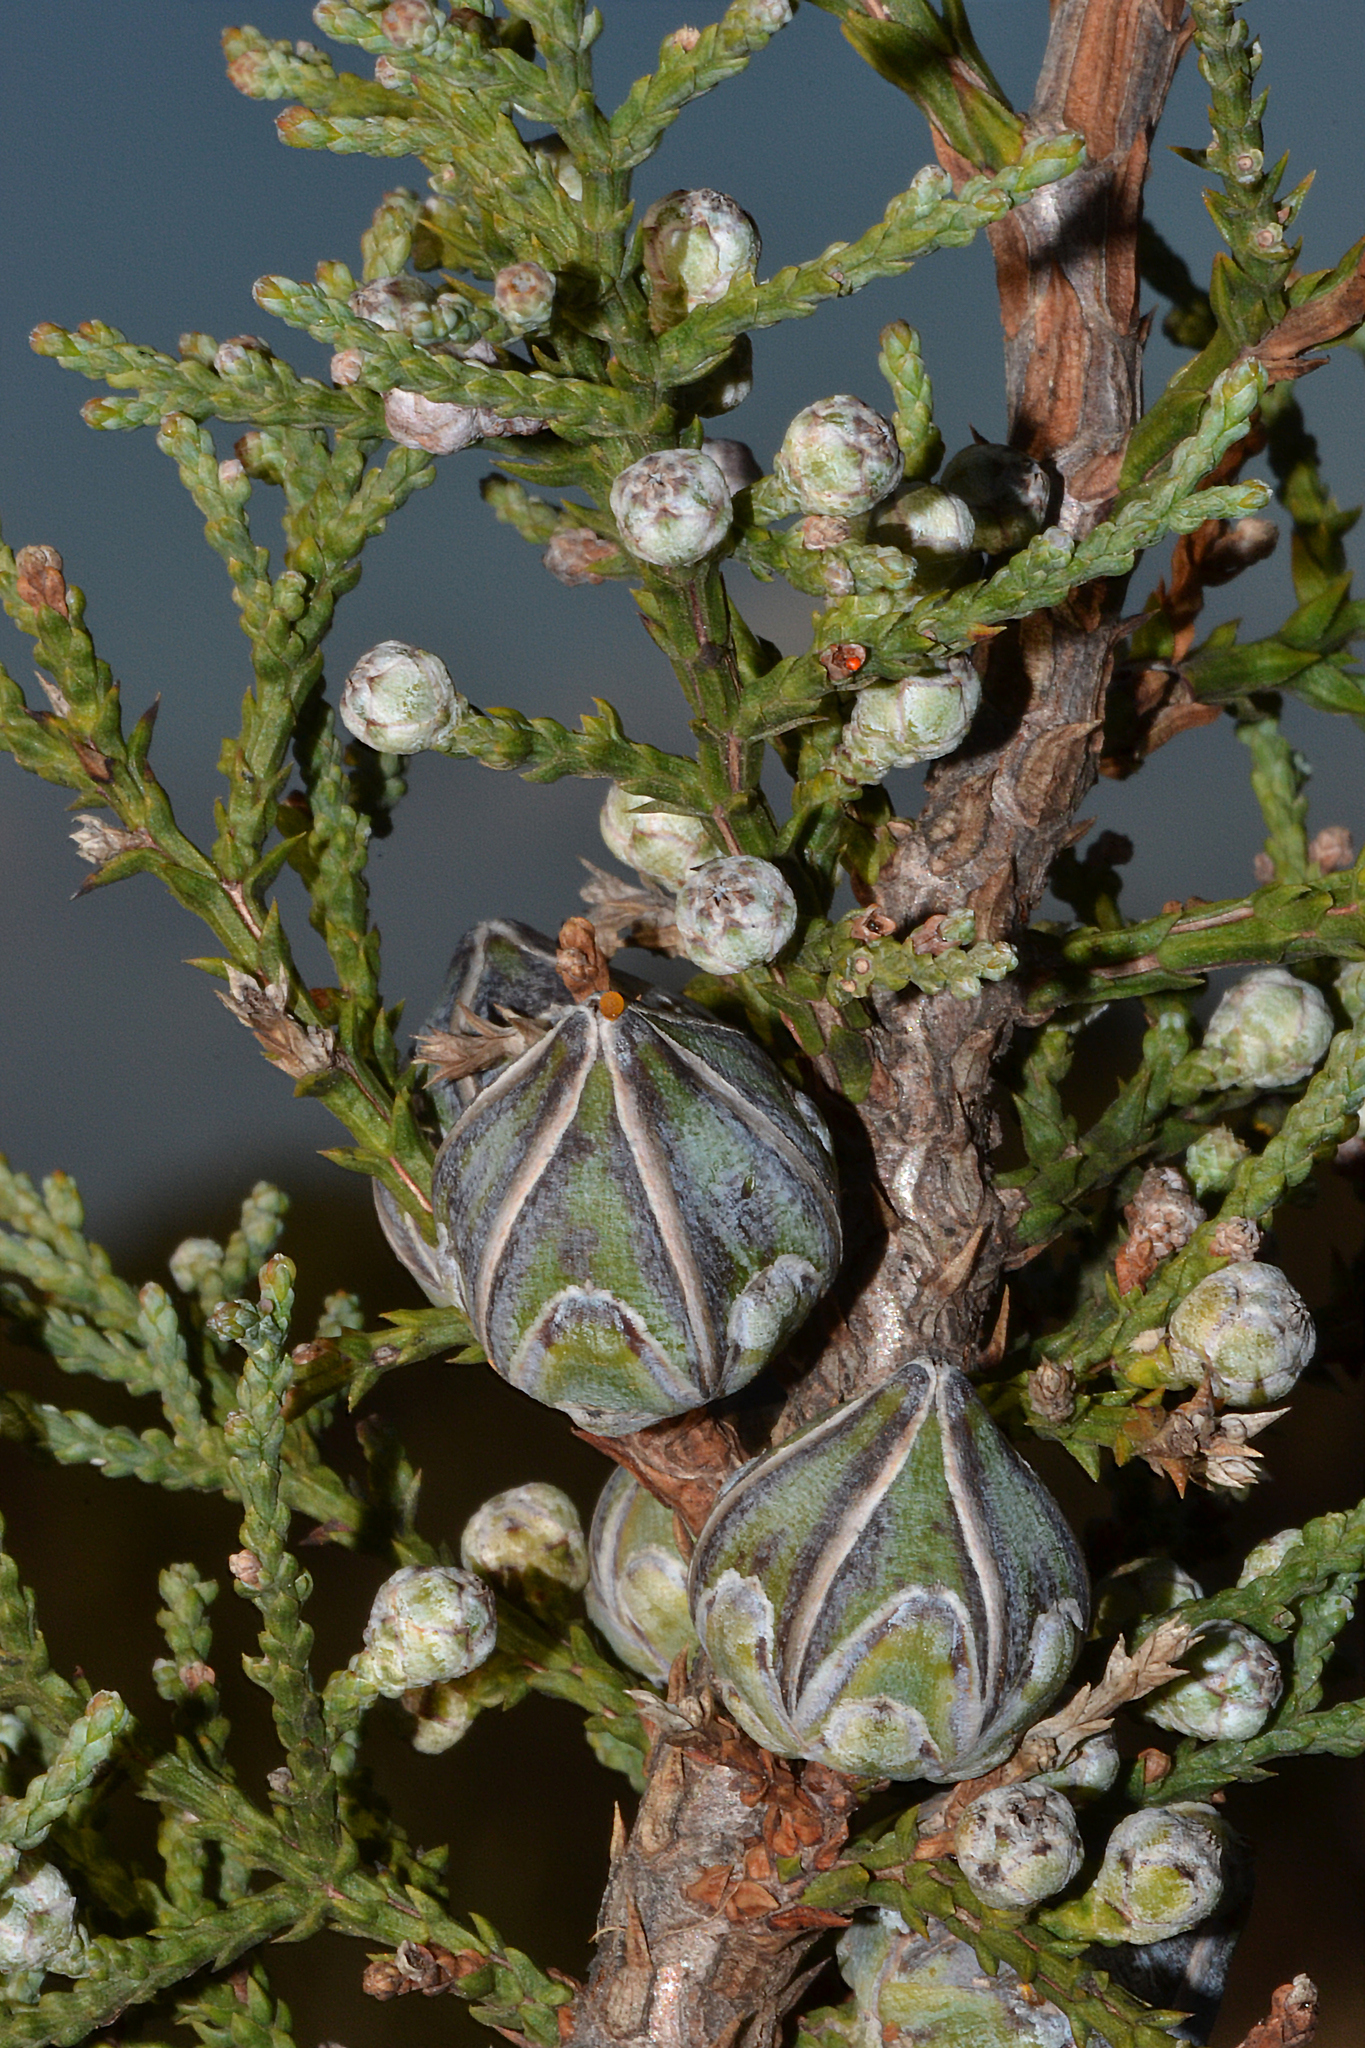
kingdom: Plantae
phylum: Tracheophyta
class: Pinopsida
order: Pinales
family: Cupressaceae
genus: Actinostrobus
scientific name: Actinostrobus arenarius
